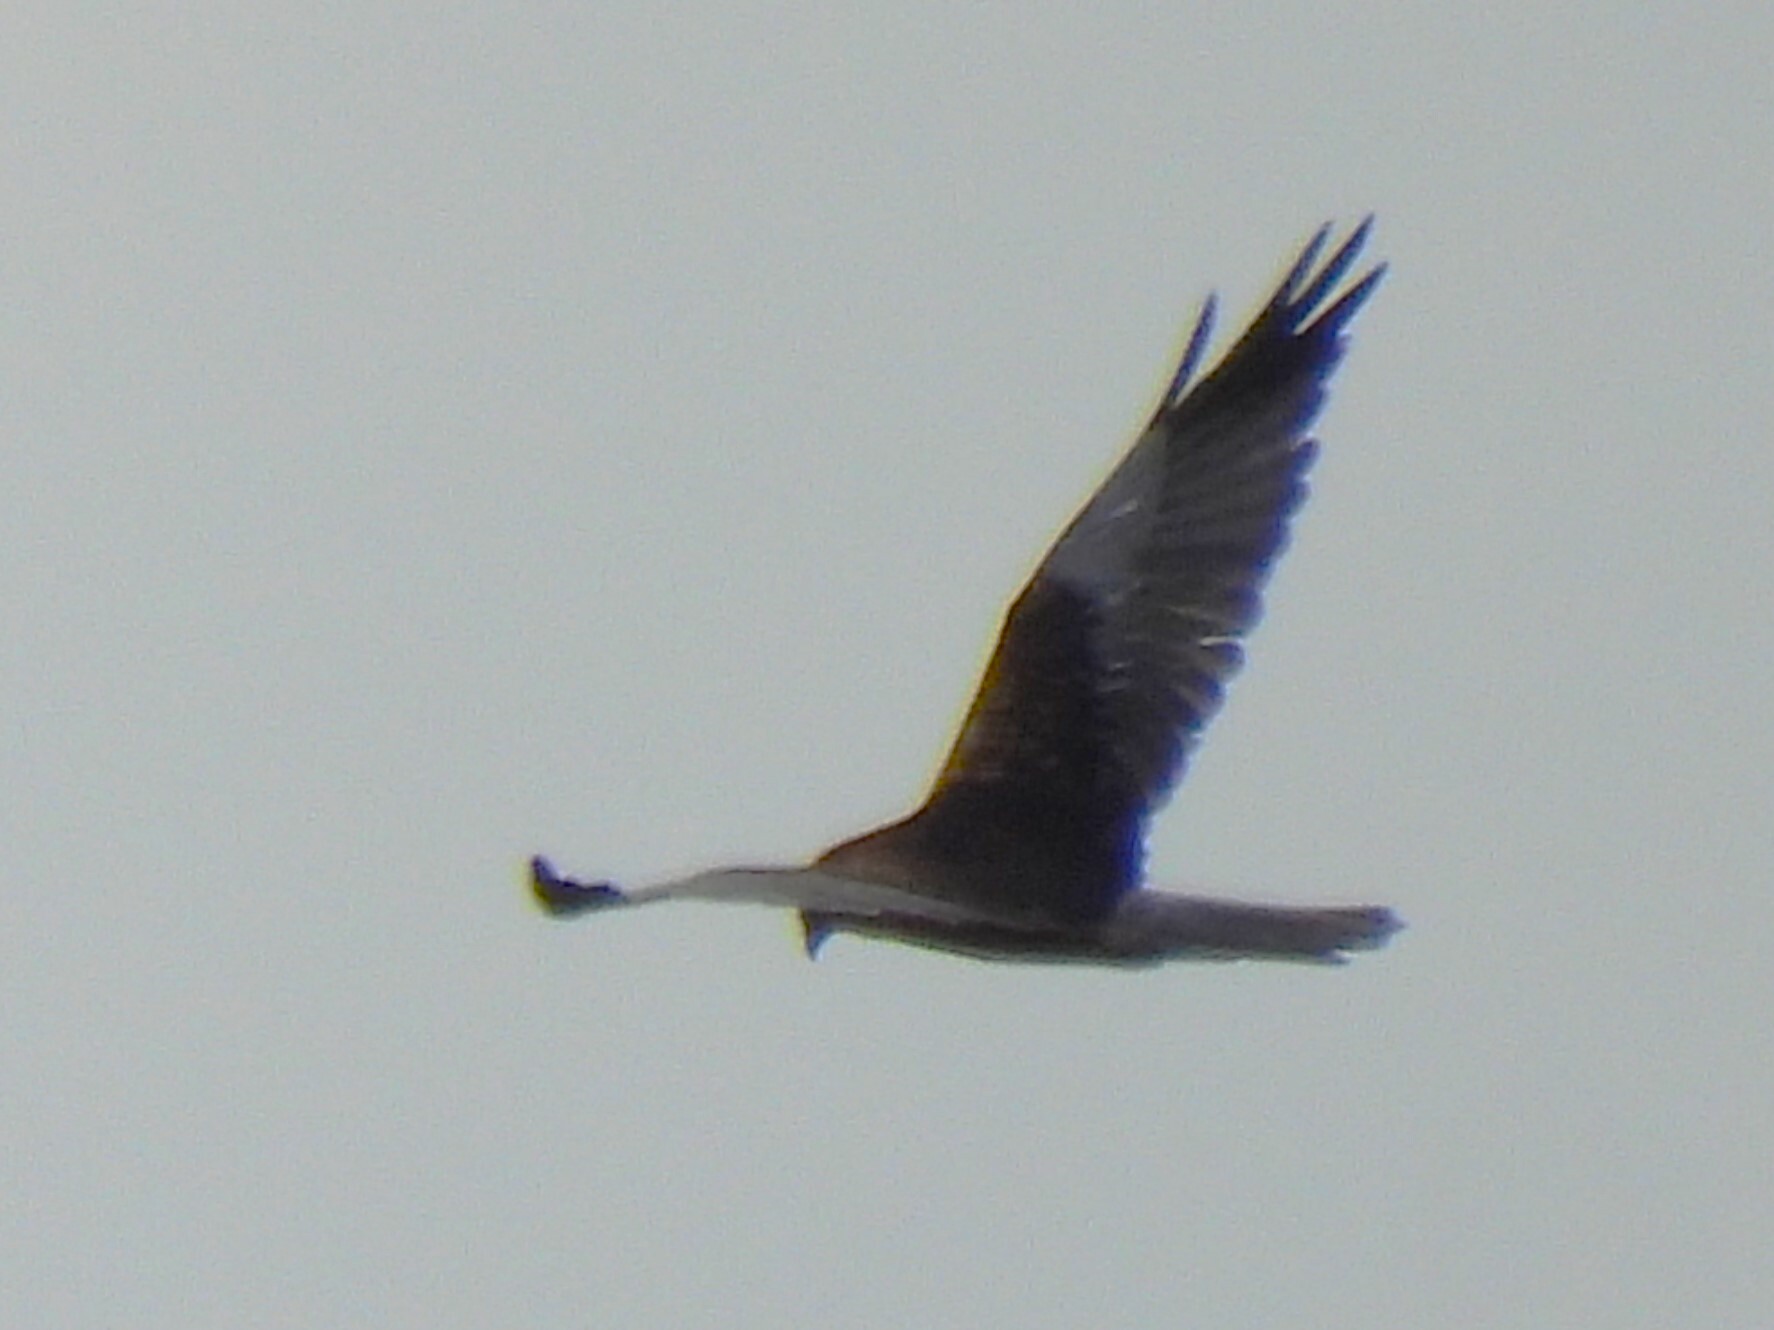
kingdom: Animalia
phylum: Chordata
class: Aves
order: Accipitriformes
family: Accipitridae
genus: Circus
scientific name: Circus aeruginosus
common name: Western marsh harrier
